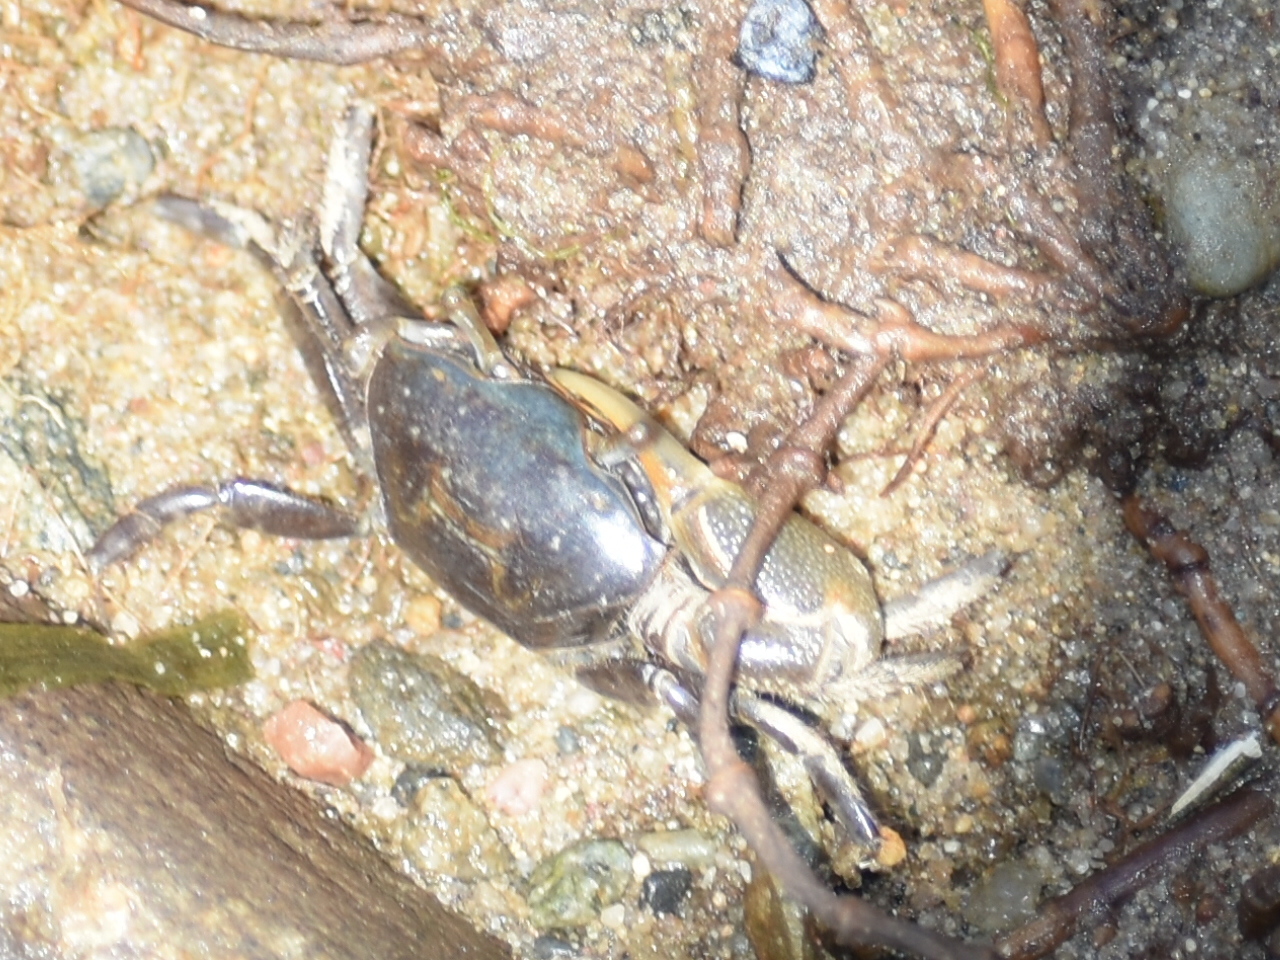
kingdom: Animalia
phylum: Arthropoda
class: Malacostraca
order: Decapoda
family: Ocypodidae
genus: Minuca
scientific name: Minuca pugnax
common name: Mud fiddler crab
